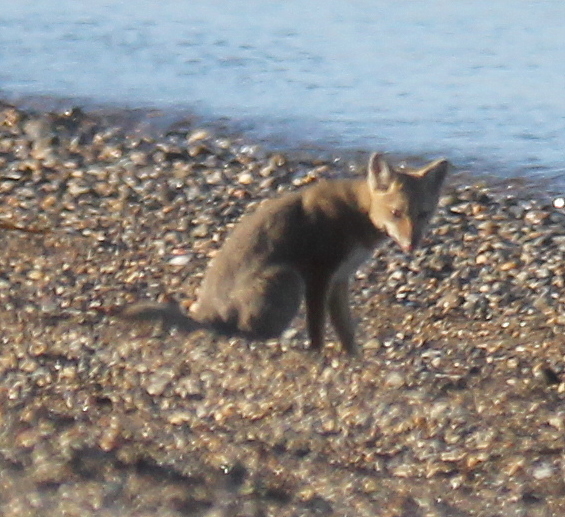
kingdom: Animalia
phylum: Chordata
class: Mammalia
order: Carnivora
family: Canidae
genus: Lycalopex
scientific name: Lycalopex gymnocercus
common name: Pampas fox
